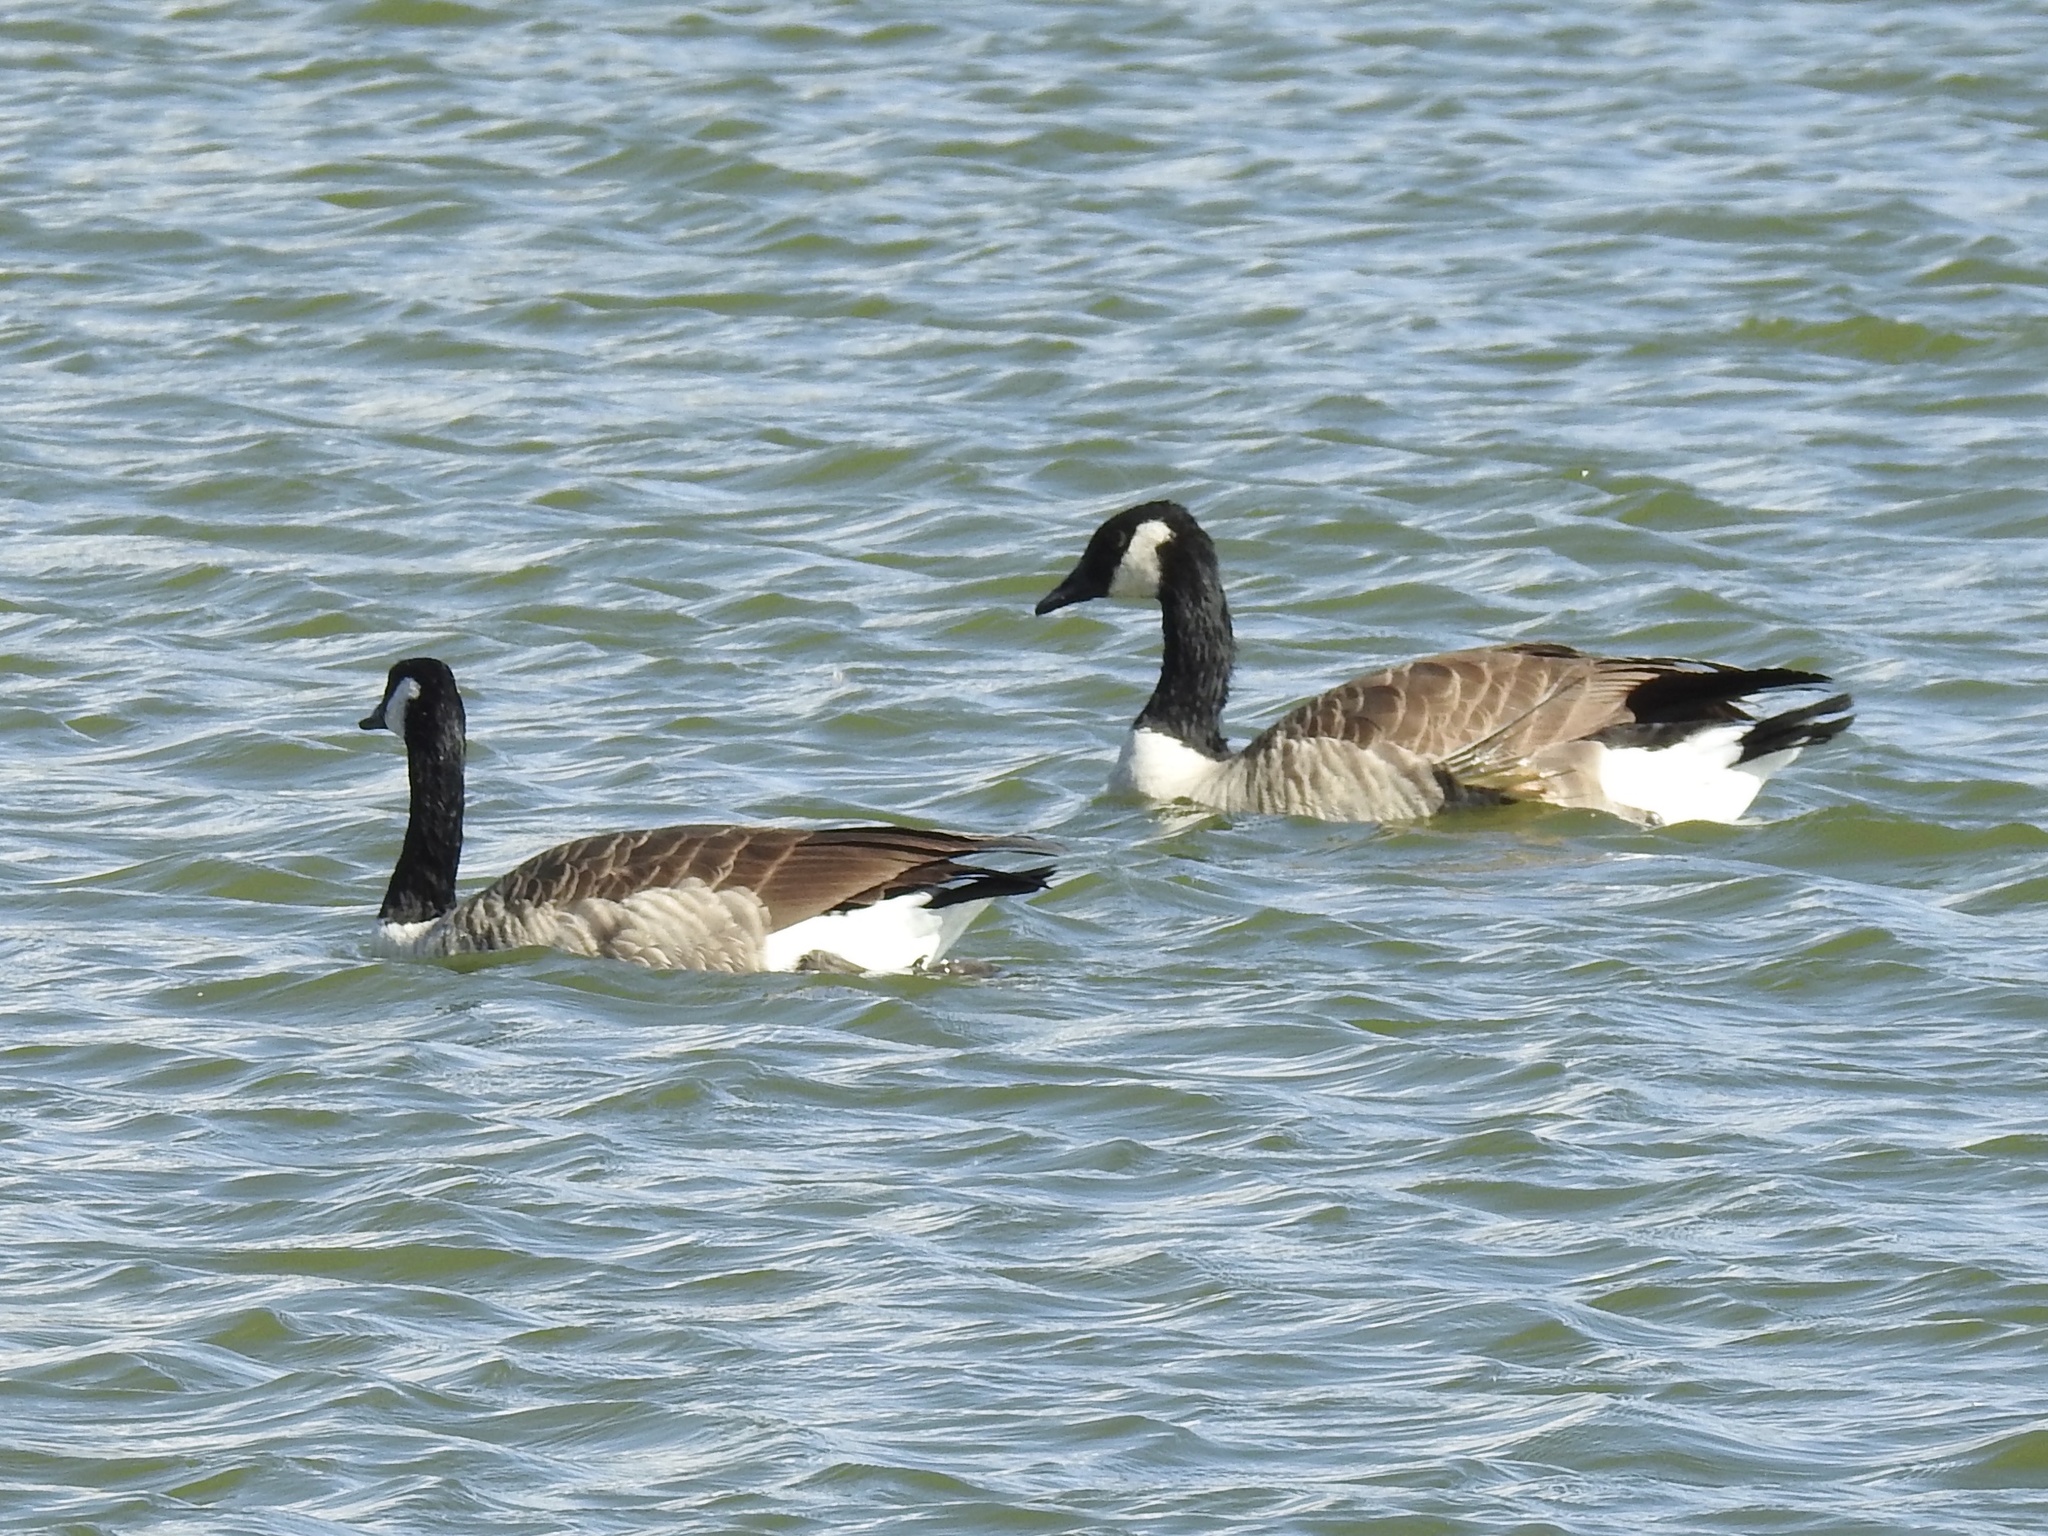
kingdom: Animalia
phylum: Chordata
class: Aves
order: Anseriformes
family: Anatidae
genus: Branta
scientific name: Branta canadensis
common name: Canada goose
